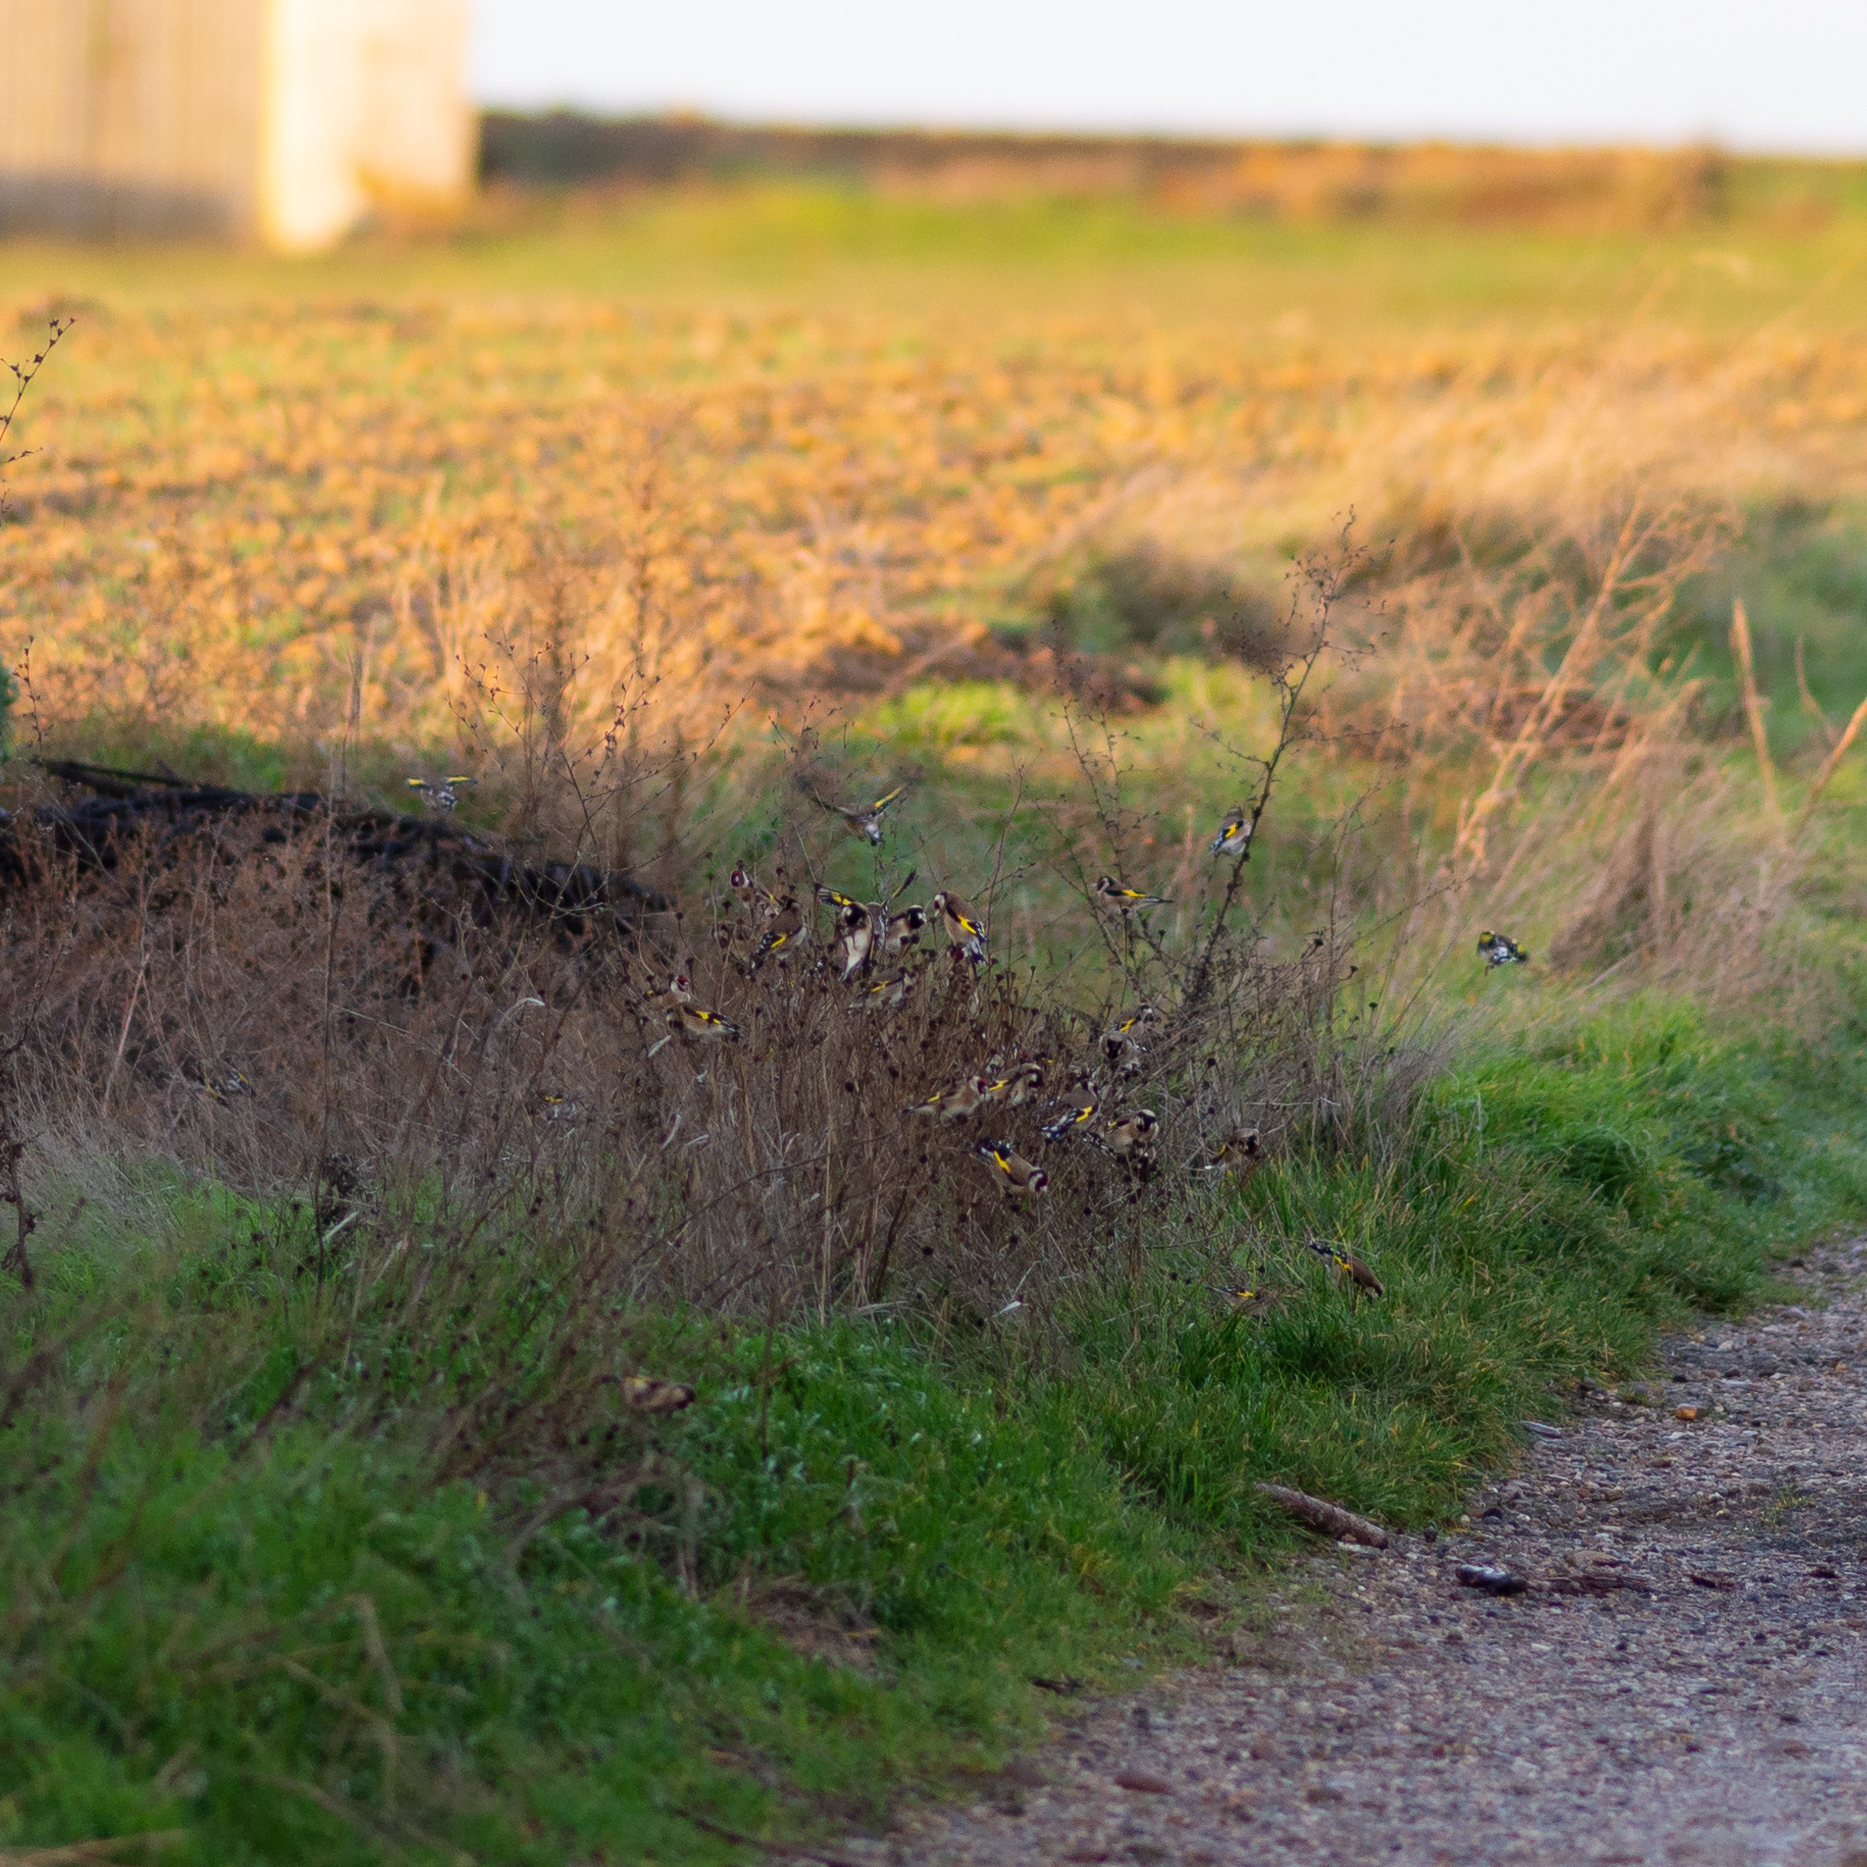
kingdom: Animalia
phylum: Chordata
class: Aves
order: Passeriformes
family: Fringillidae
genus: Carduelis
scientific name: Carduelis carduelis
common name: European goldfinch
